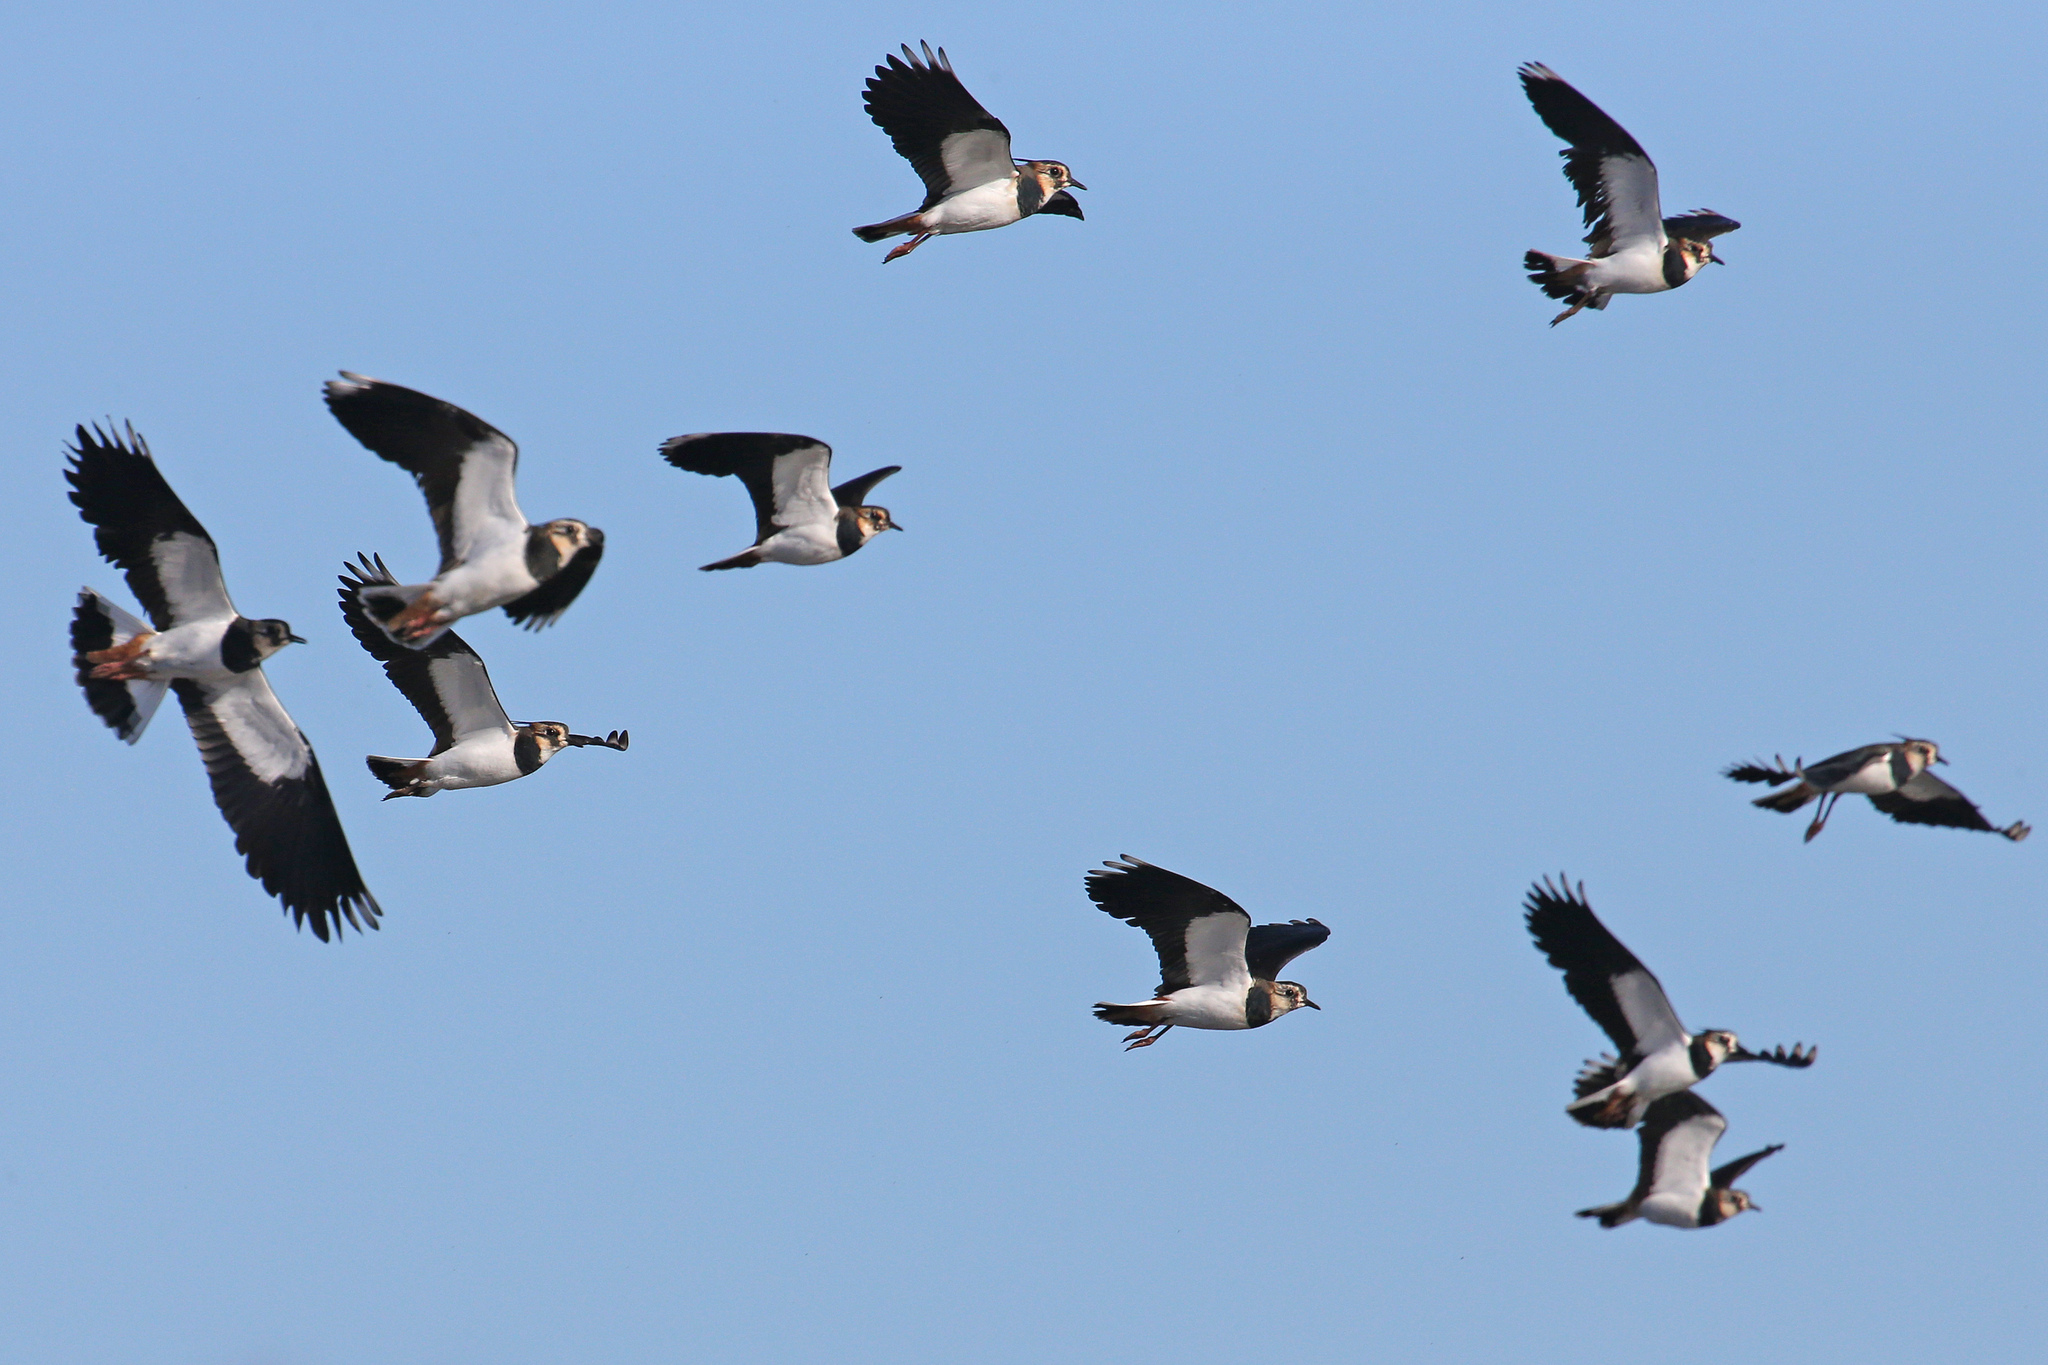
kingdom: Animalia
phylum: Chordata
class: Aves
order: Charadriiformes
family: Charadriidae
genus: Vanellus
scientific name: Vanellus vanellus
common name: Northern lapwing
